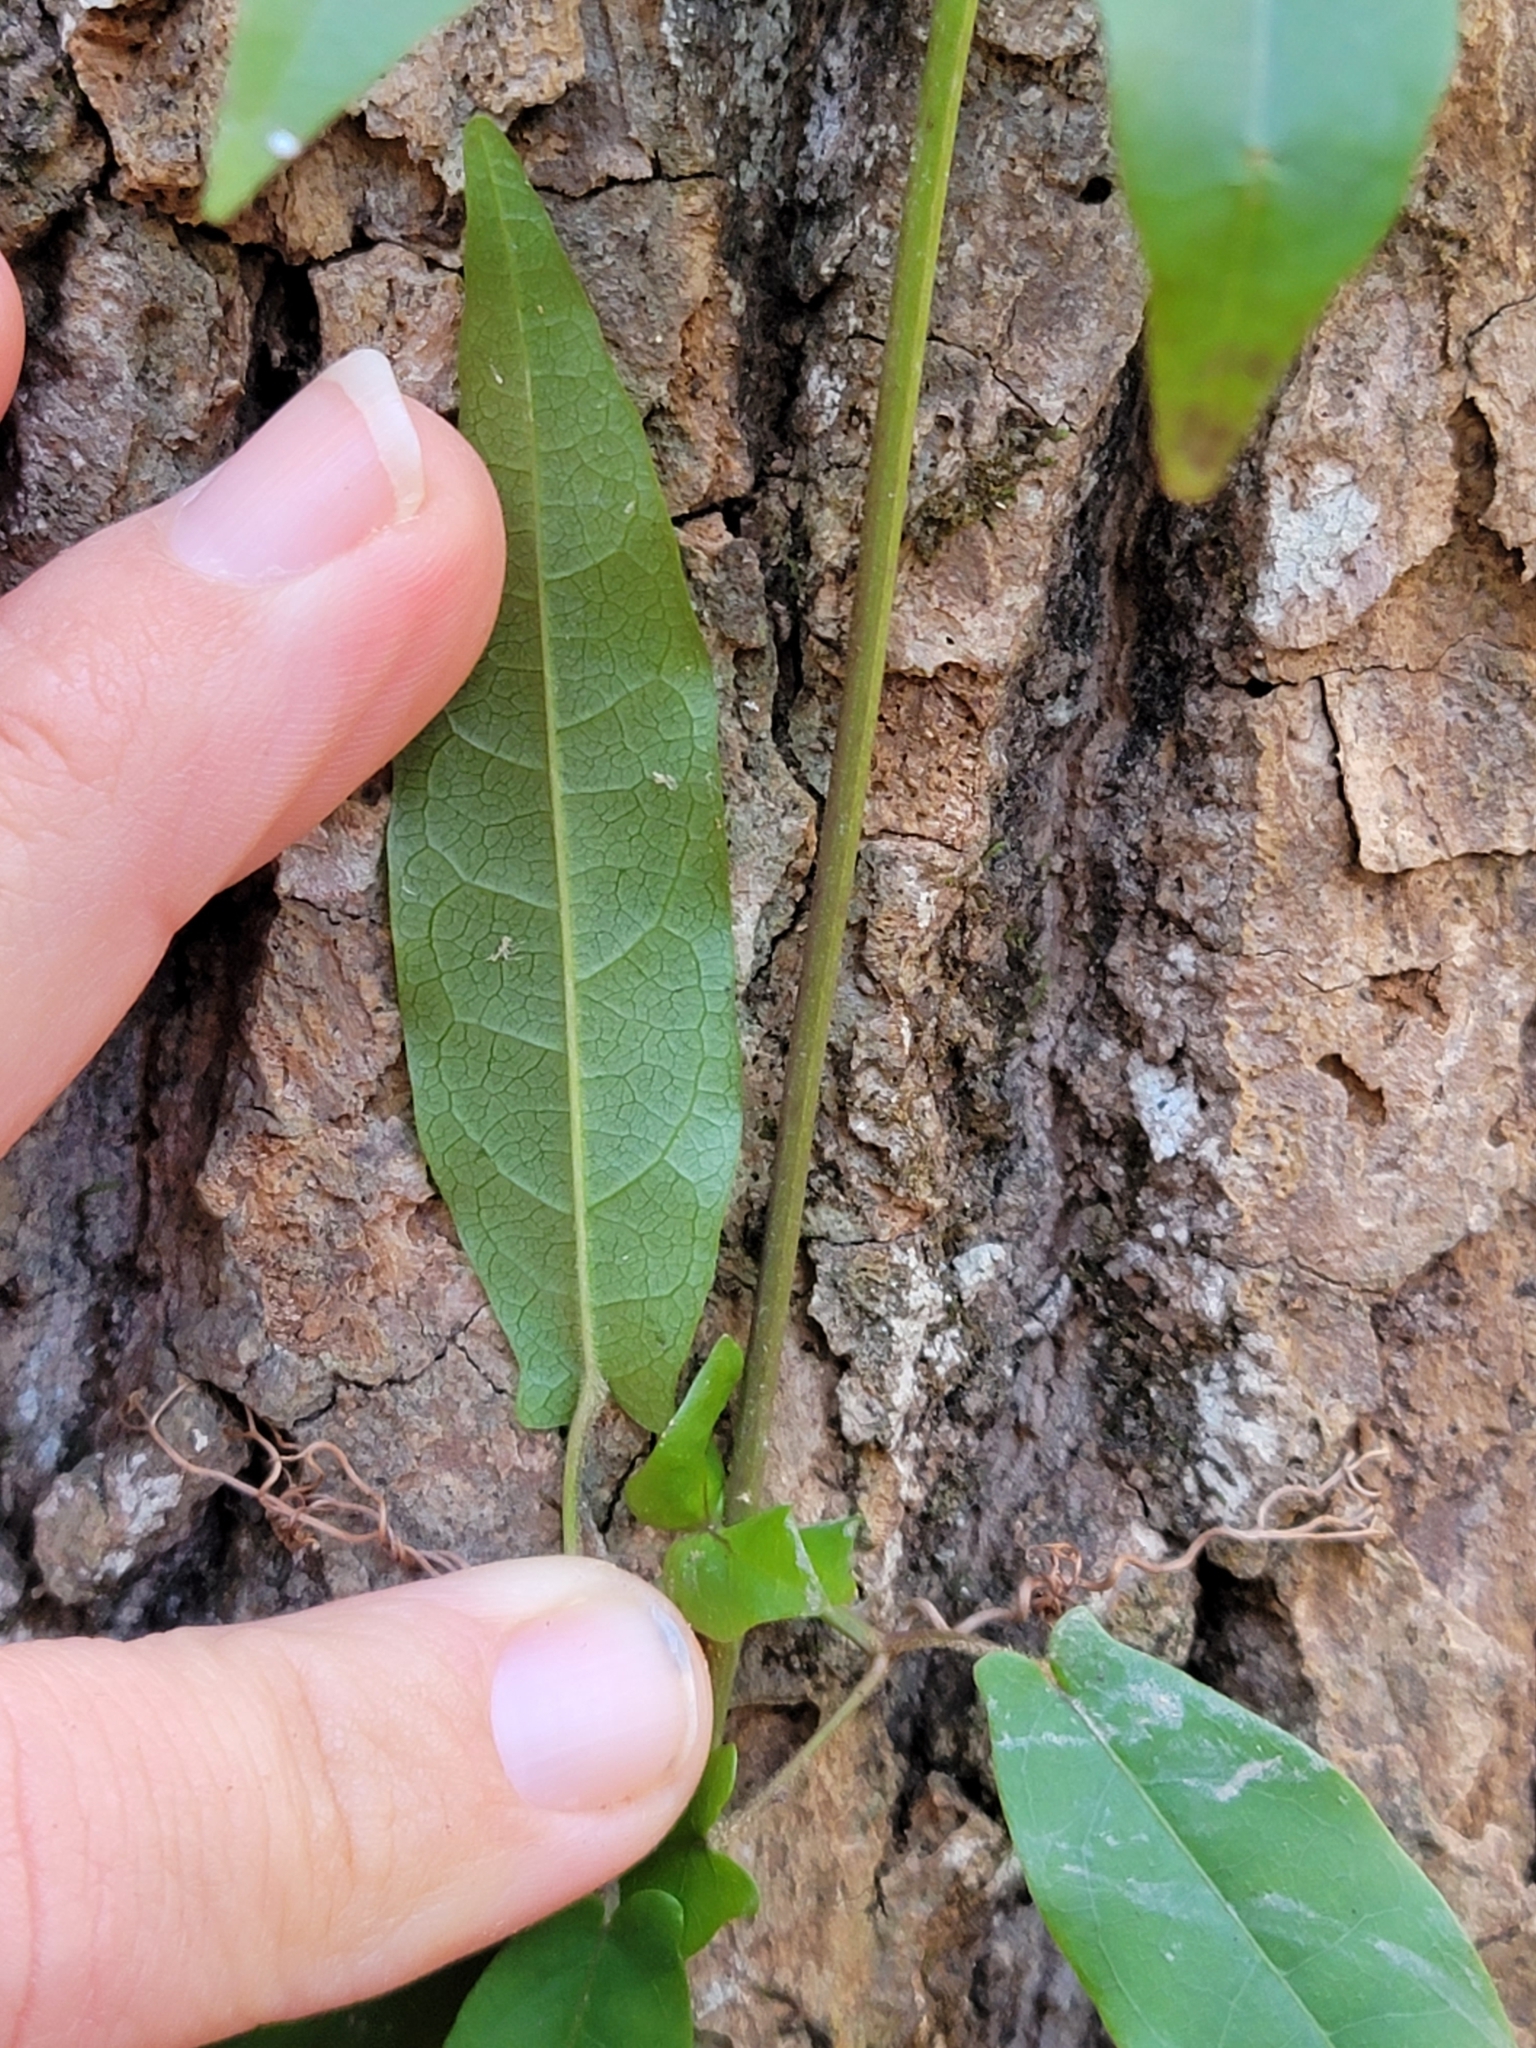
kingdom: Plantae
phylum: Tracheophyta
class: Magnoliopsida
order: Lamiales
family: Bignoniaceae
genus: Bignonia
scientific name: Bignonia capreolata
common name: Crossvine
